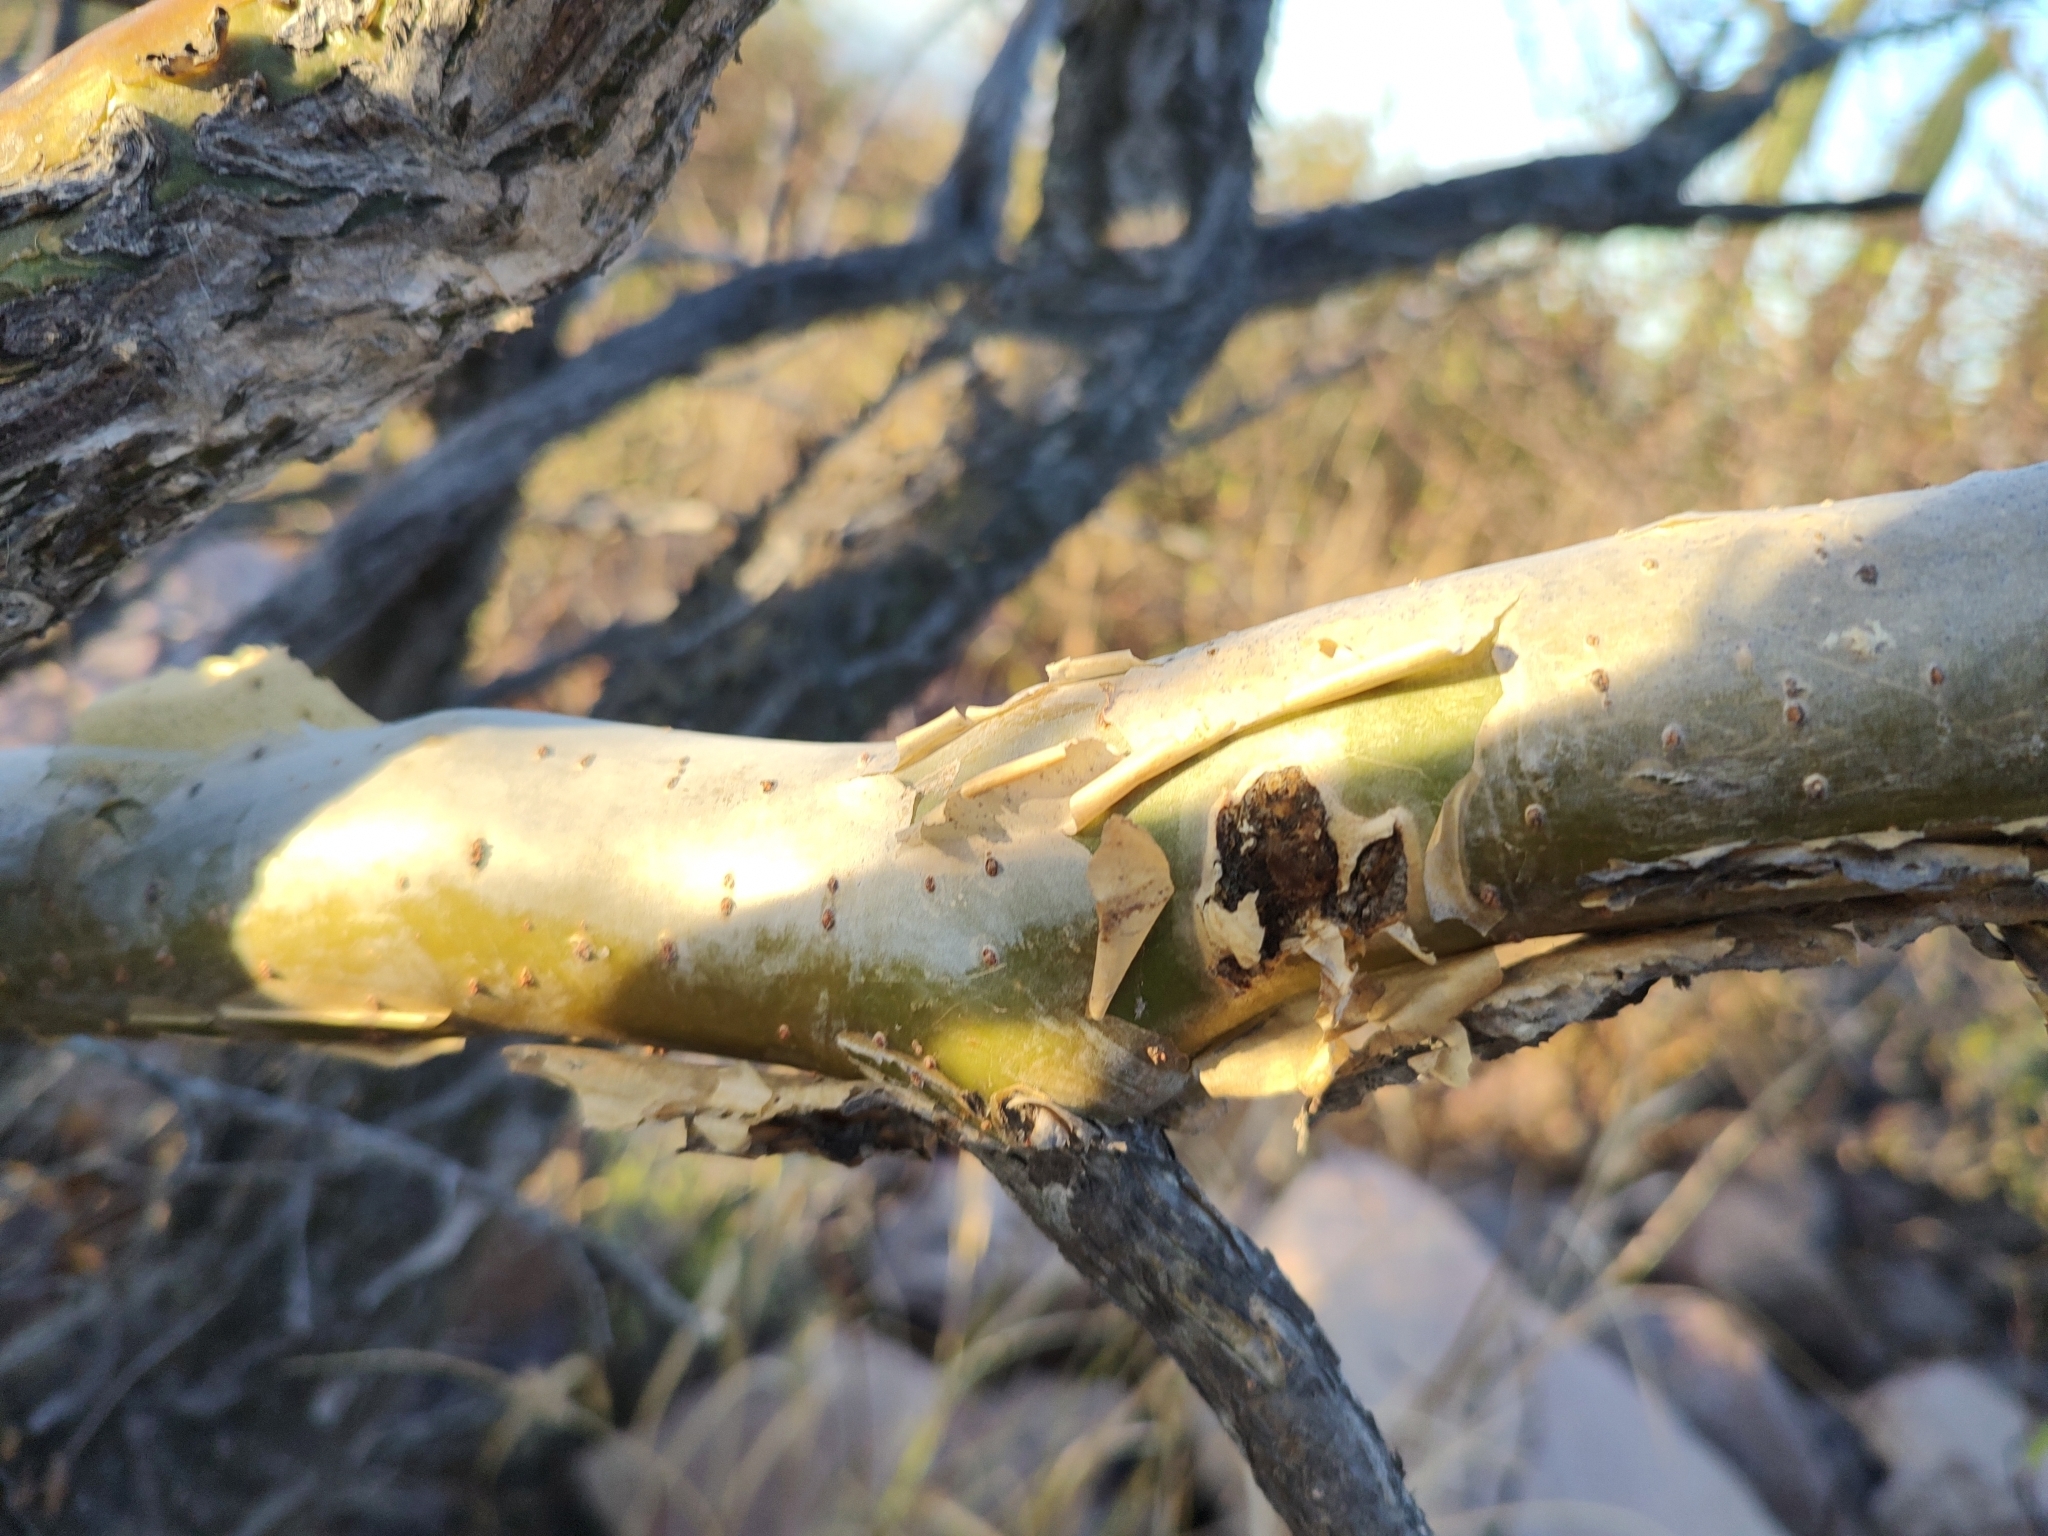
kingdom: Plantae
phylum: Tracheophyta
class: Magnoliopsida
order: Sapindales
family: Burseraceae
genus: Bursera
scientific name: Bursera fagaroides
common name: Elephant tree
